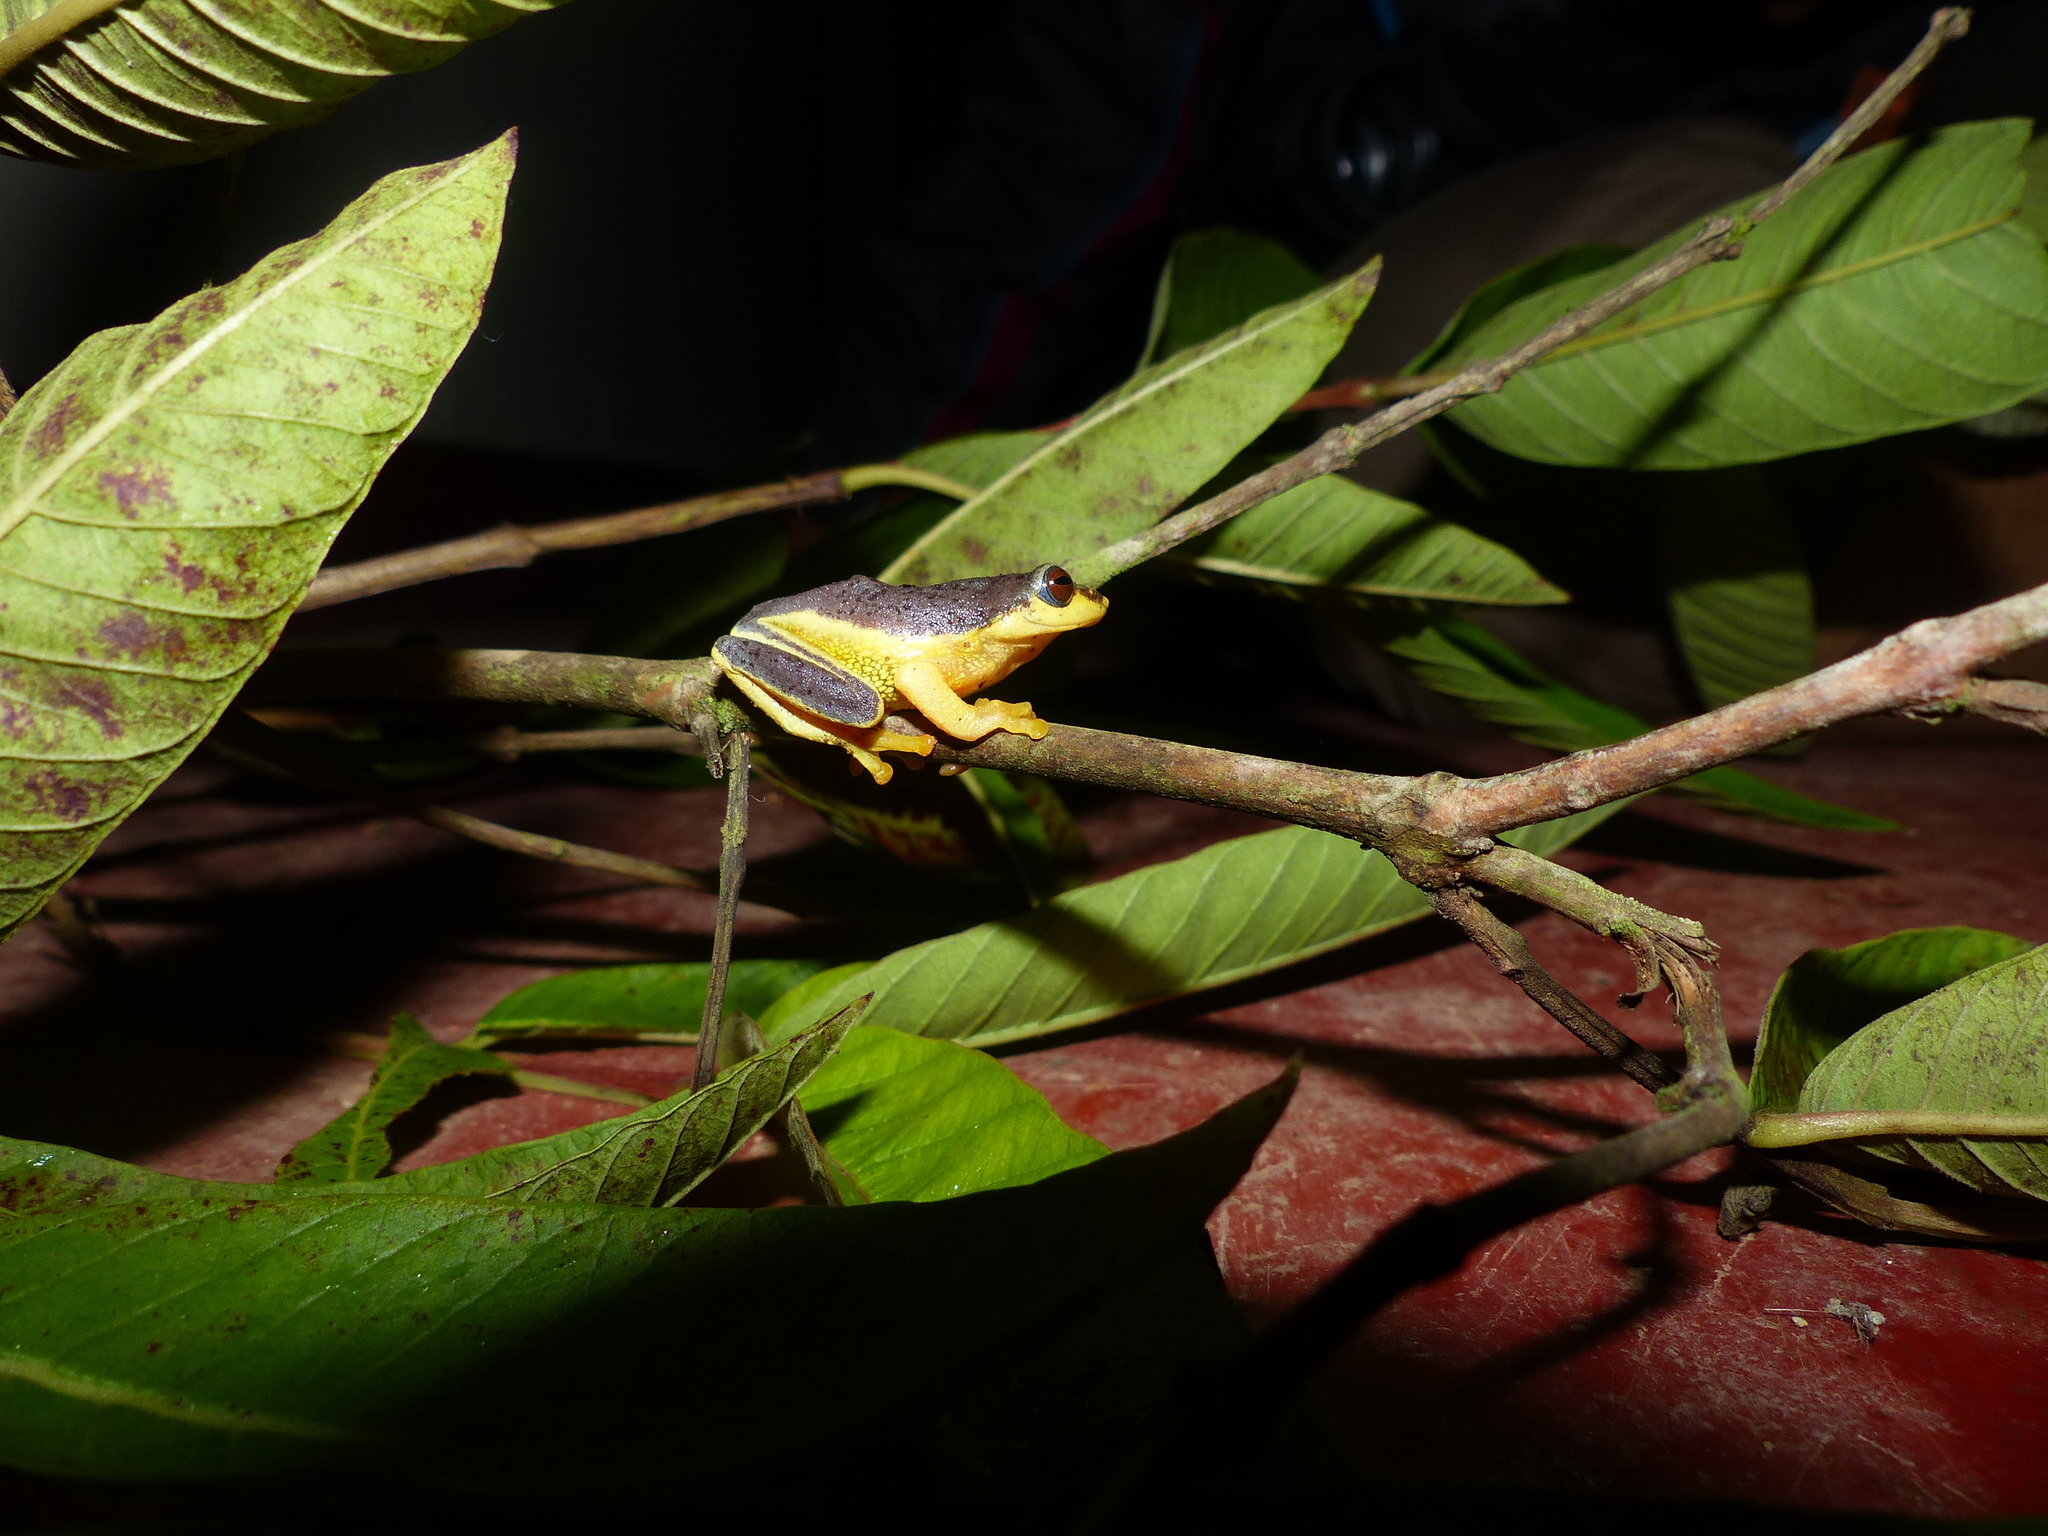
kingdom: Animalia
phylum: Chordata
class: Amphibia
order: Anura
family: Rhacophoridae
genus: Raorchestes
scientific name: Raorchestes glandulosus
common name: Beautiful bush frog
